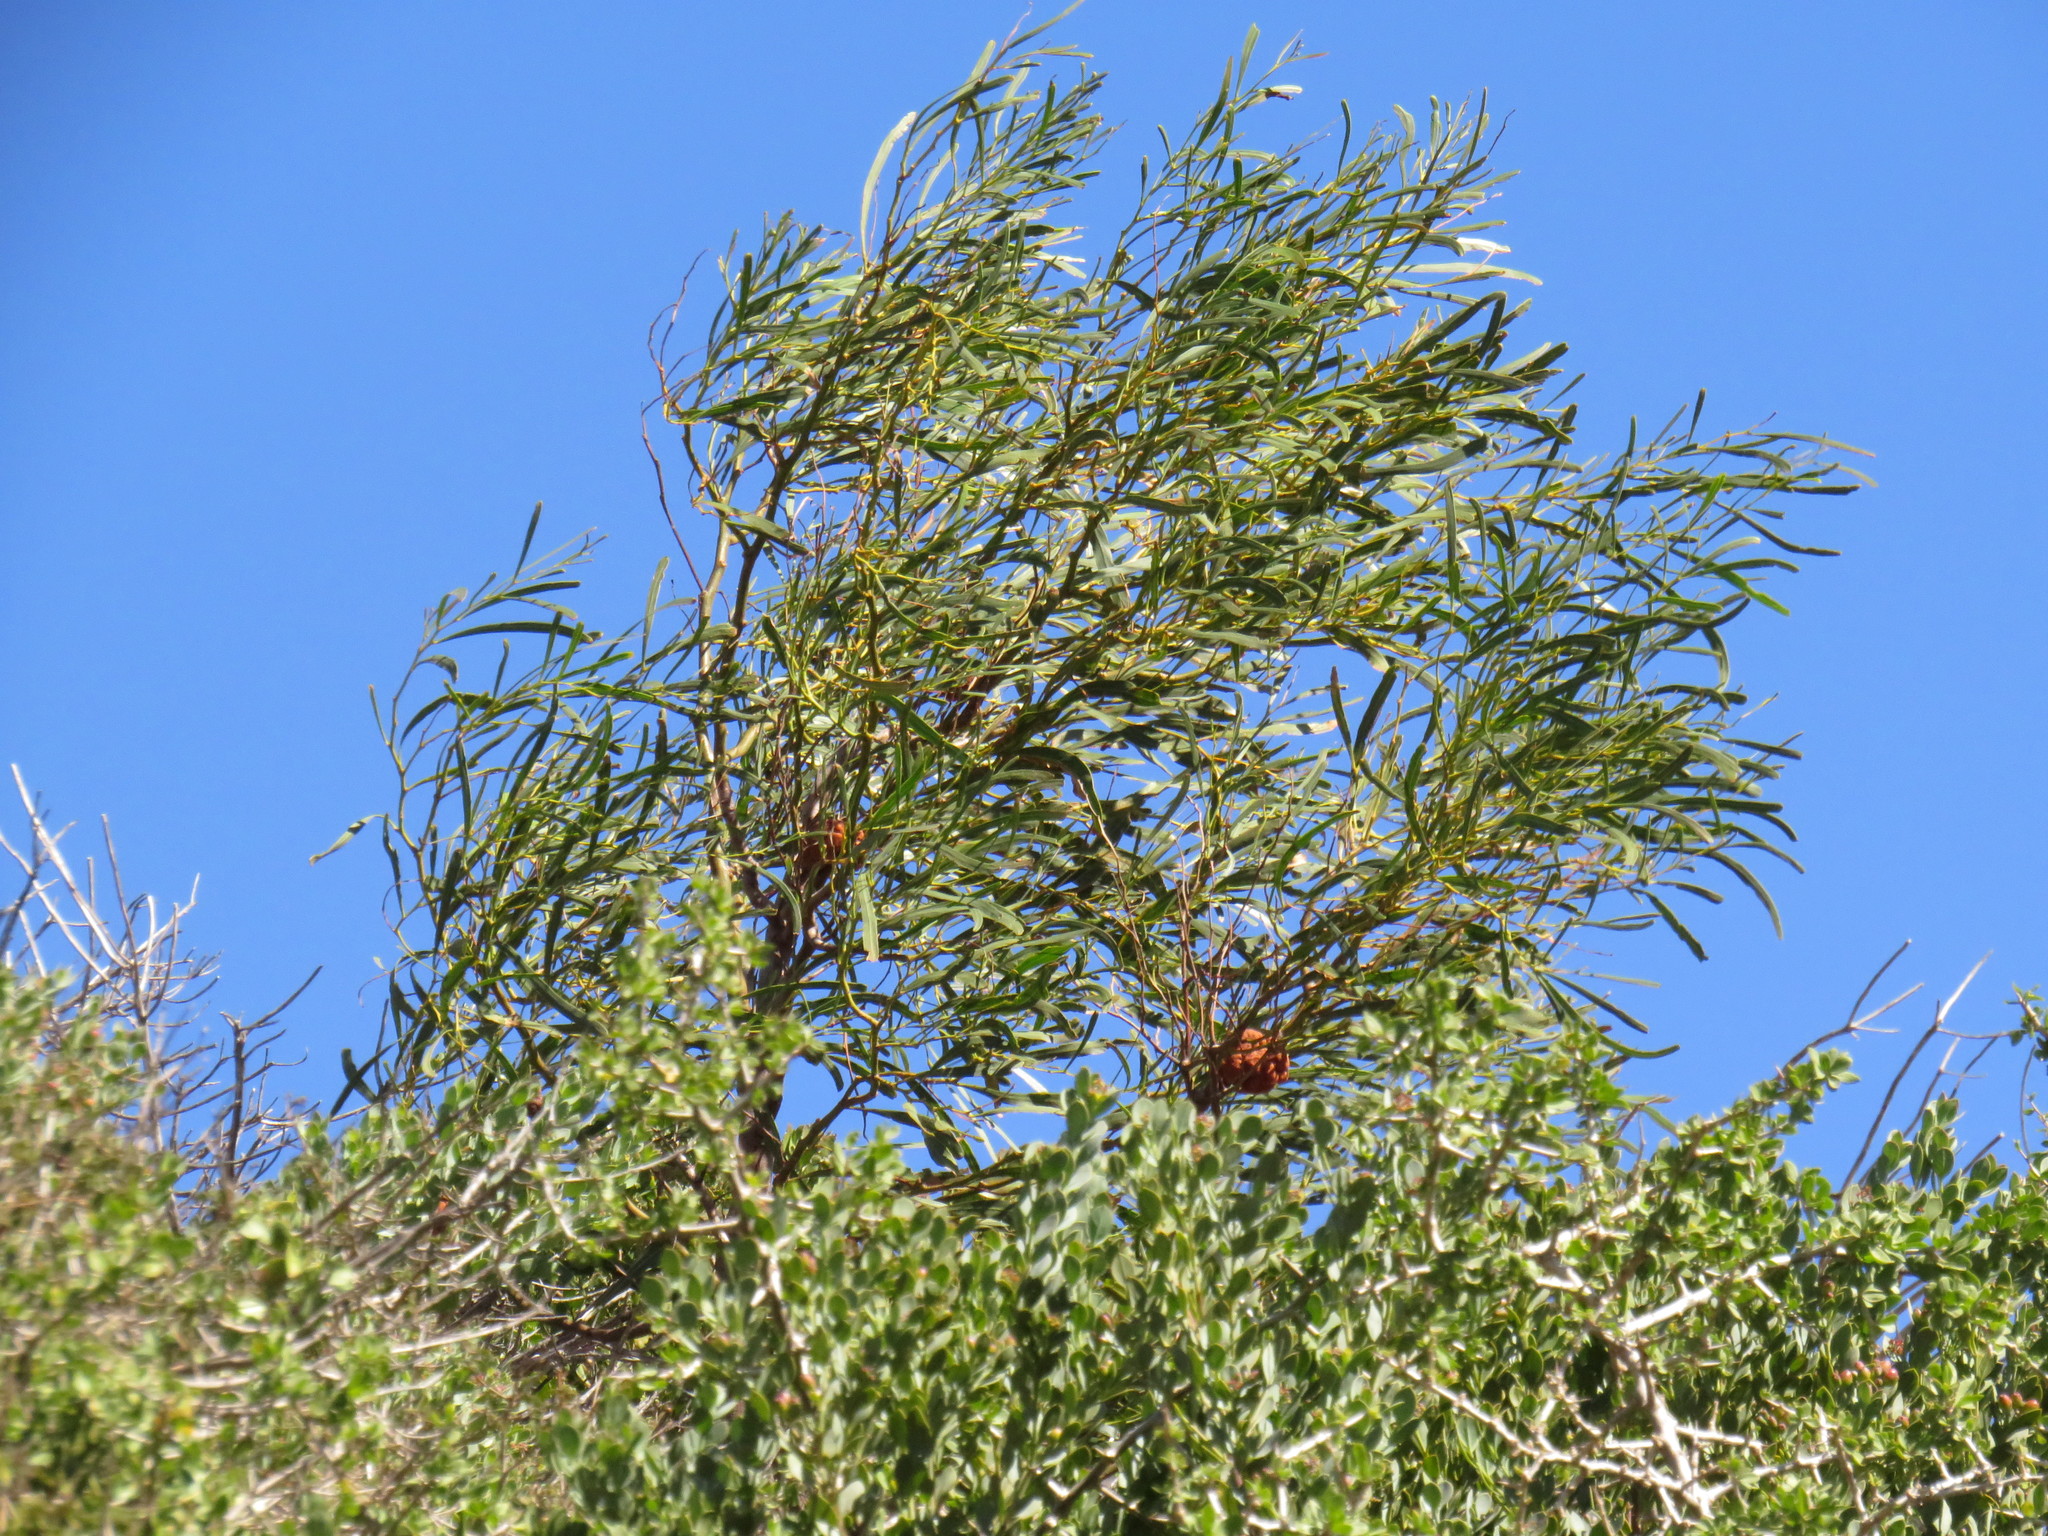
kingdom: Plantae
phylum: Tracheophyta
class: Magnoliopsida
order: Fabales
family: Fabaceae
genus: Acacia
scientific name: Acacia saligna
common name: Orange wattle
